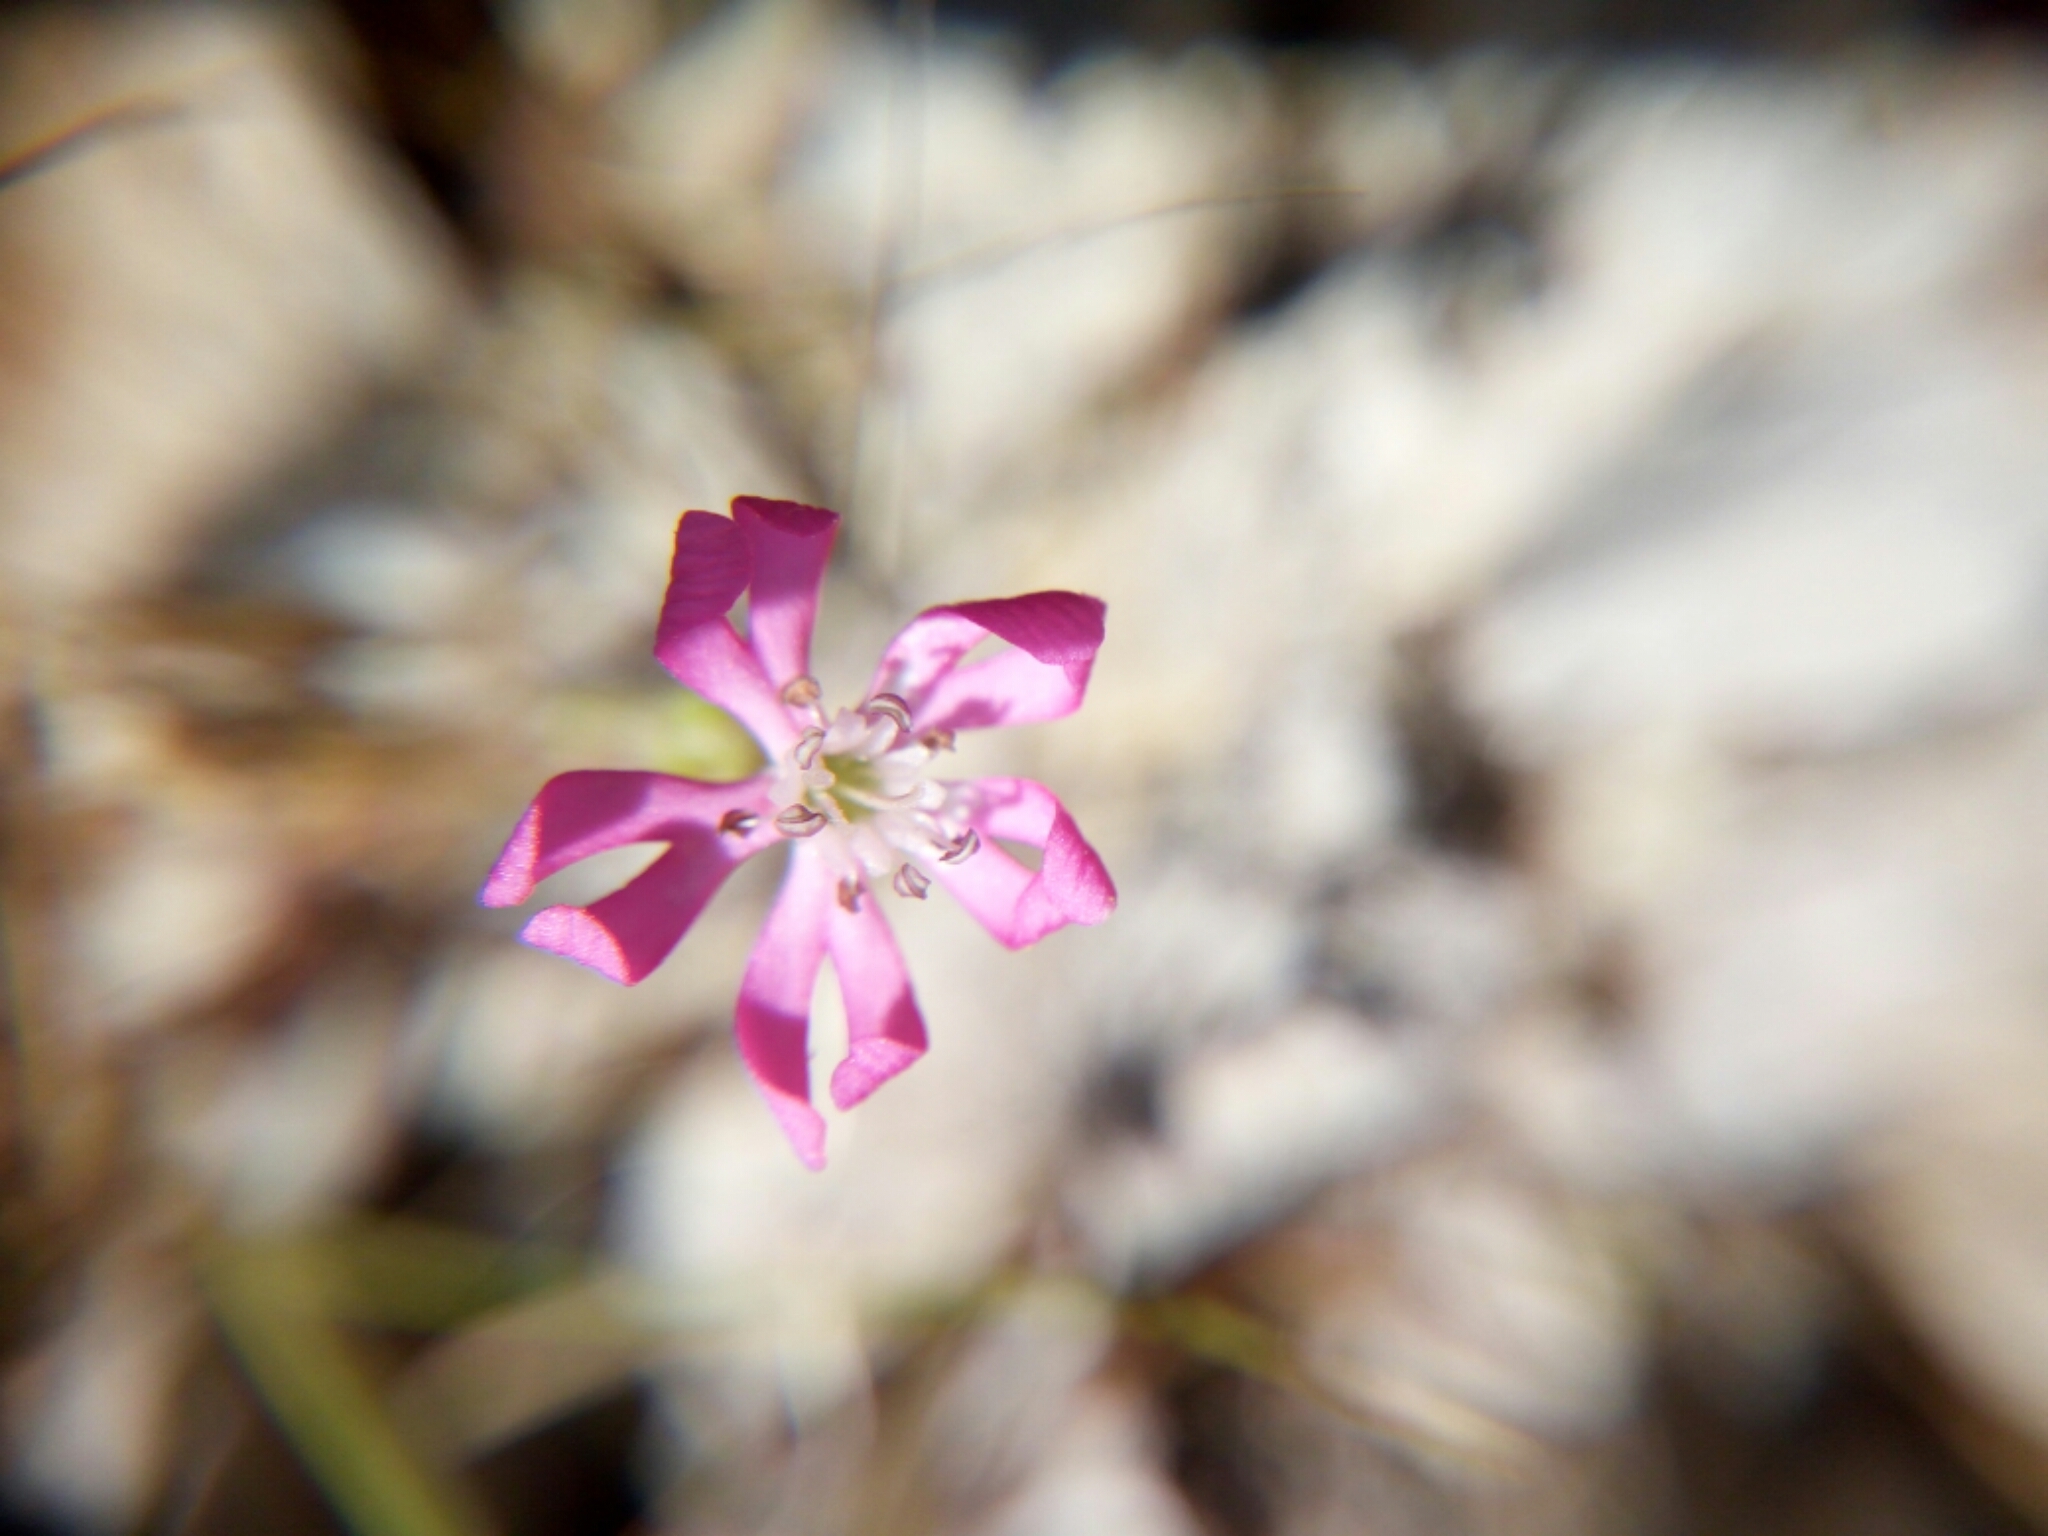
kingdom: Plantae
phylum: Tracheophyta
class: Magnoliopsida
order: Caryophyllales
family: Caryophyllaceae
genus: Silene
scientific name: Silene colorata
